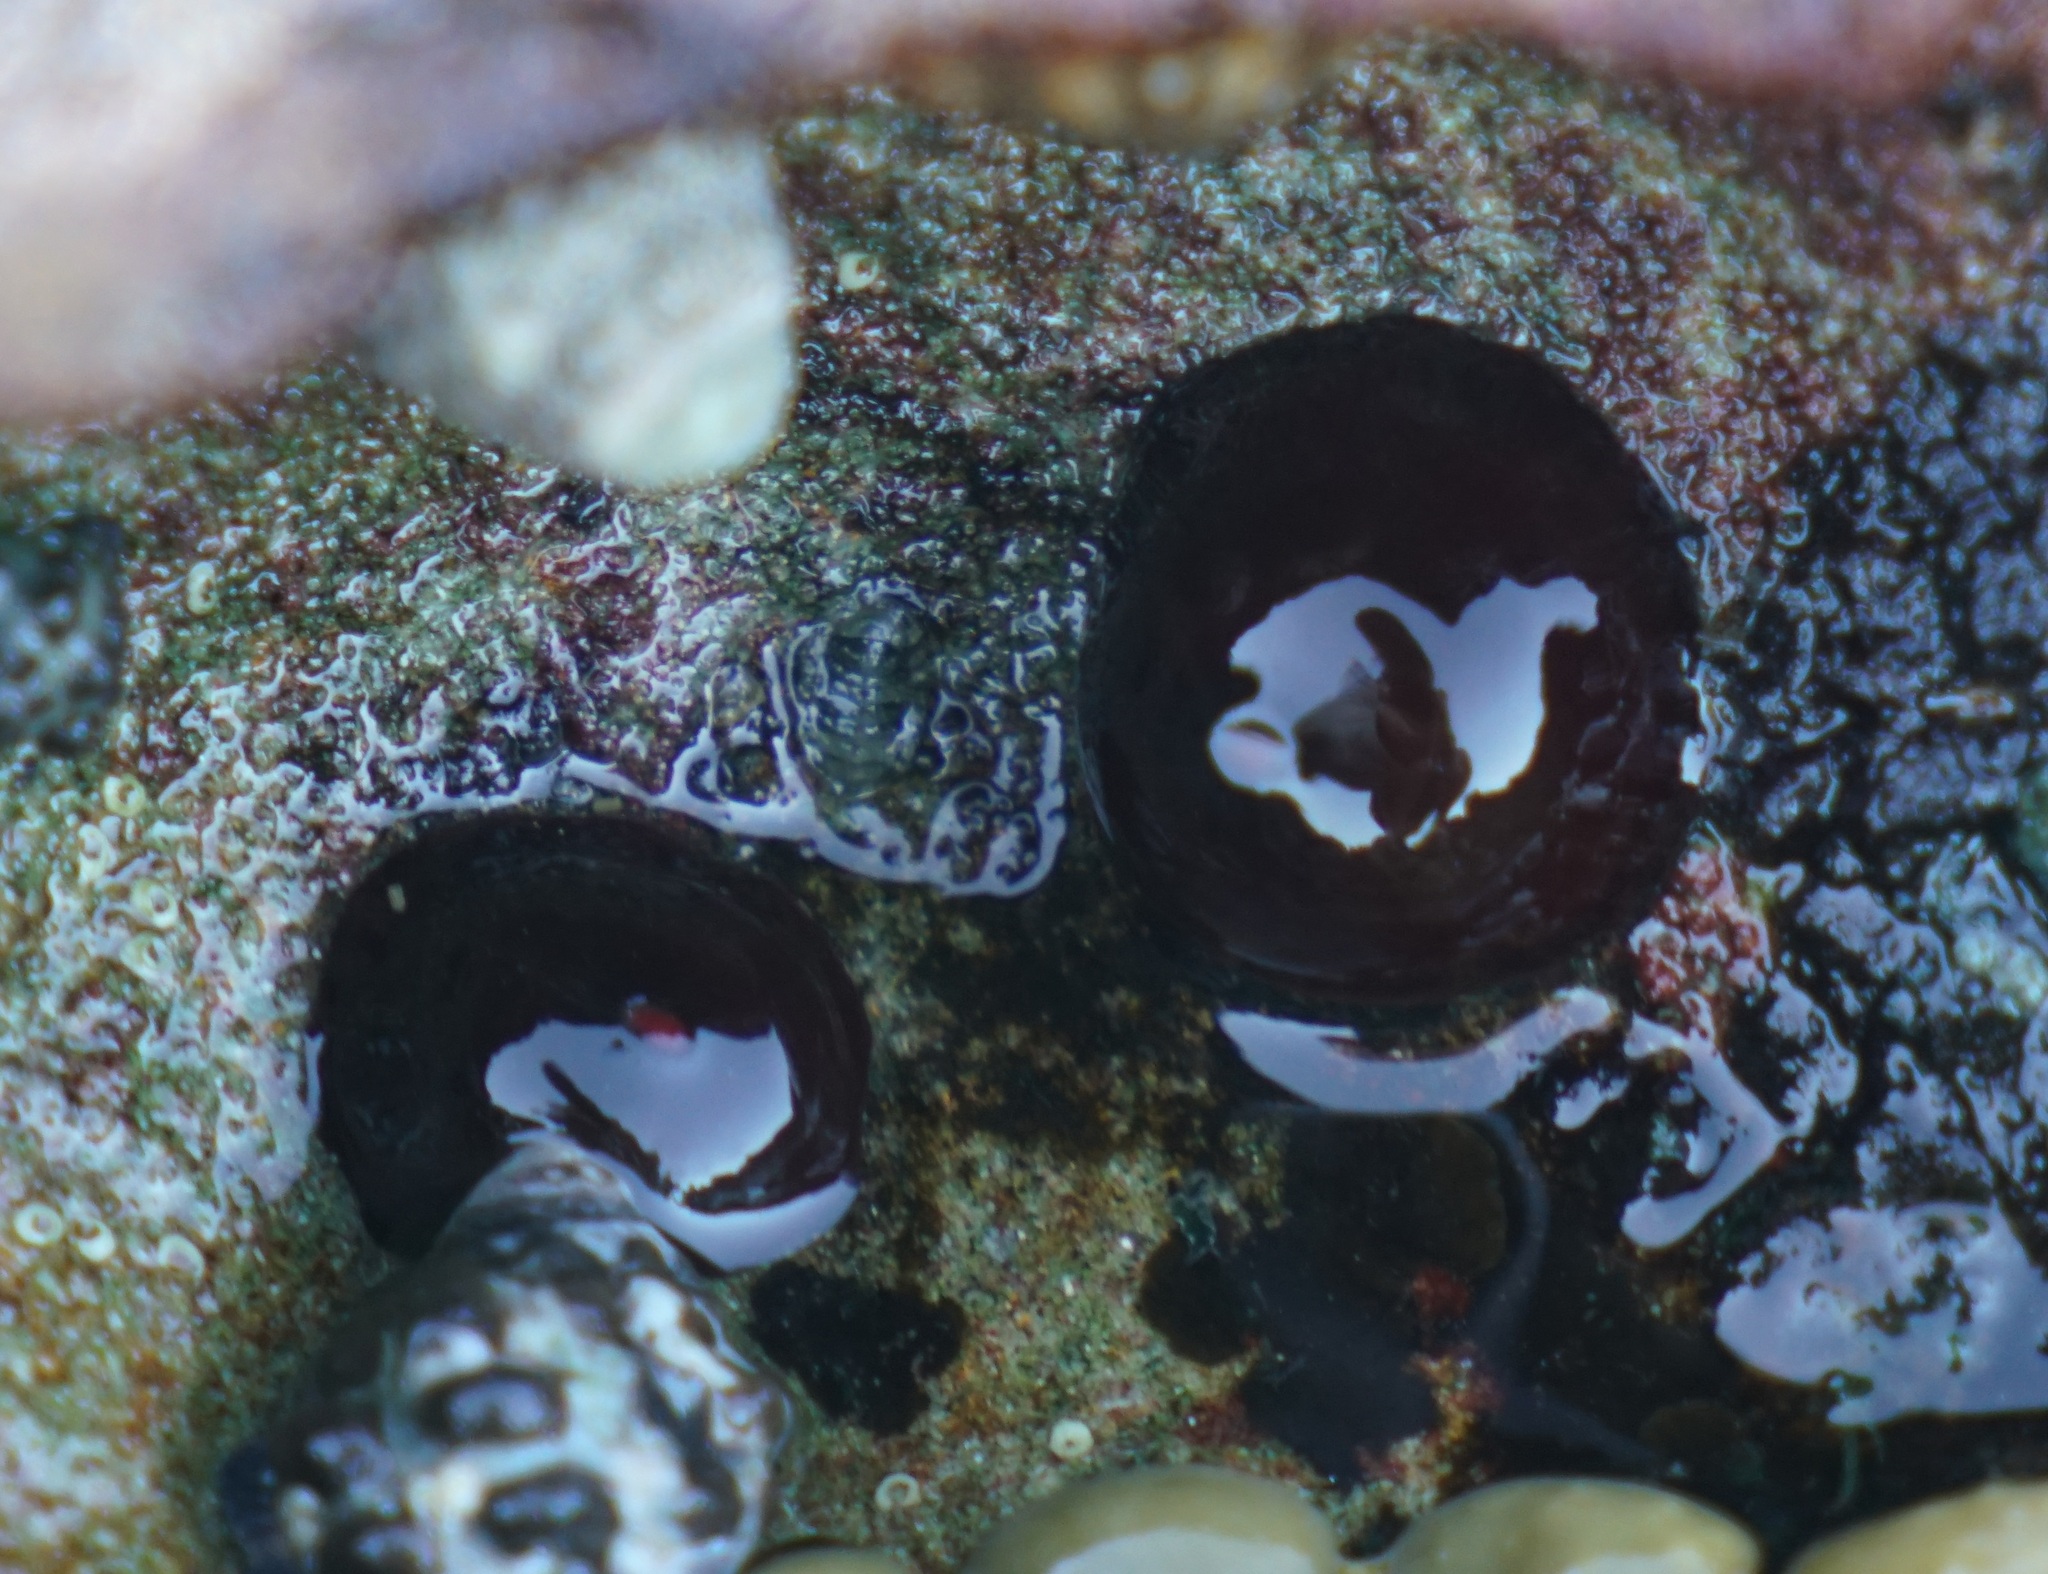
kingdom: Animalia
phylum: Cnidaria
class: Anthozoa
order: Actiniaria
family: Actiniidae
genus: Actinia
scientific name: Actinia tenebrosa
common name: Waratah anemone
